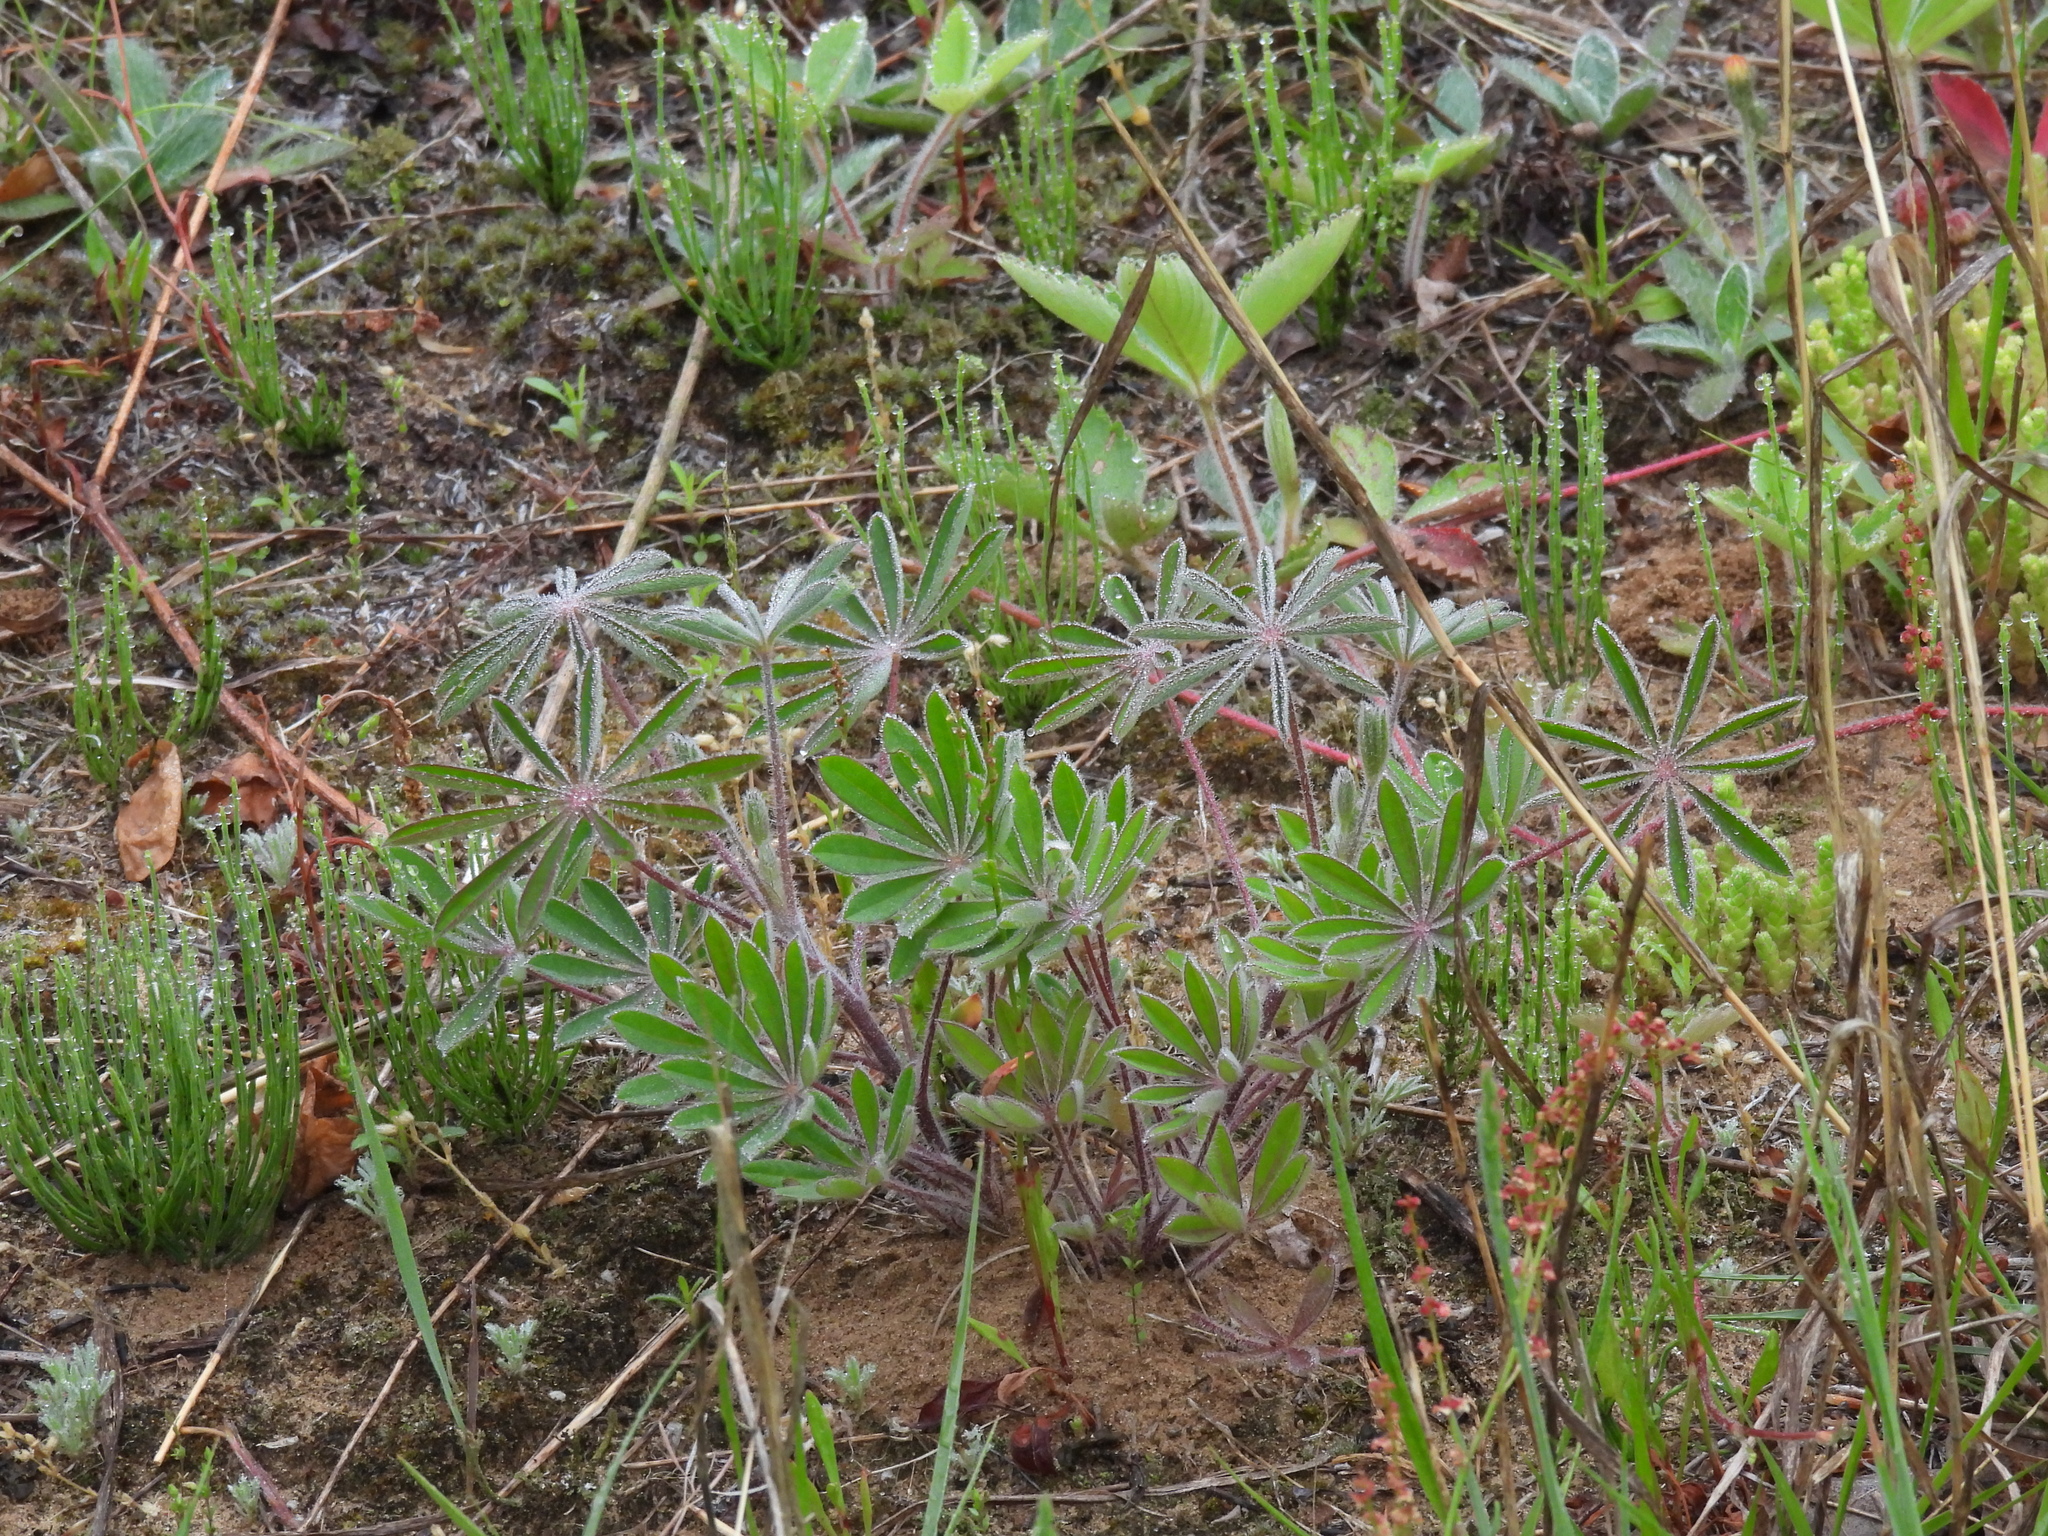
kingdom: Plantae
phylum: Tracheophyta
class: Magnoliopsida
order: Fabales
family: Fabaceae
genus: Lupinus
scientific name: Lupinus perennis
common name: Sundial lupine
